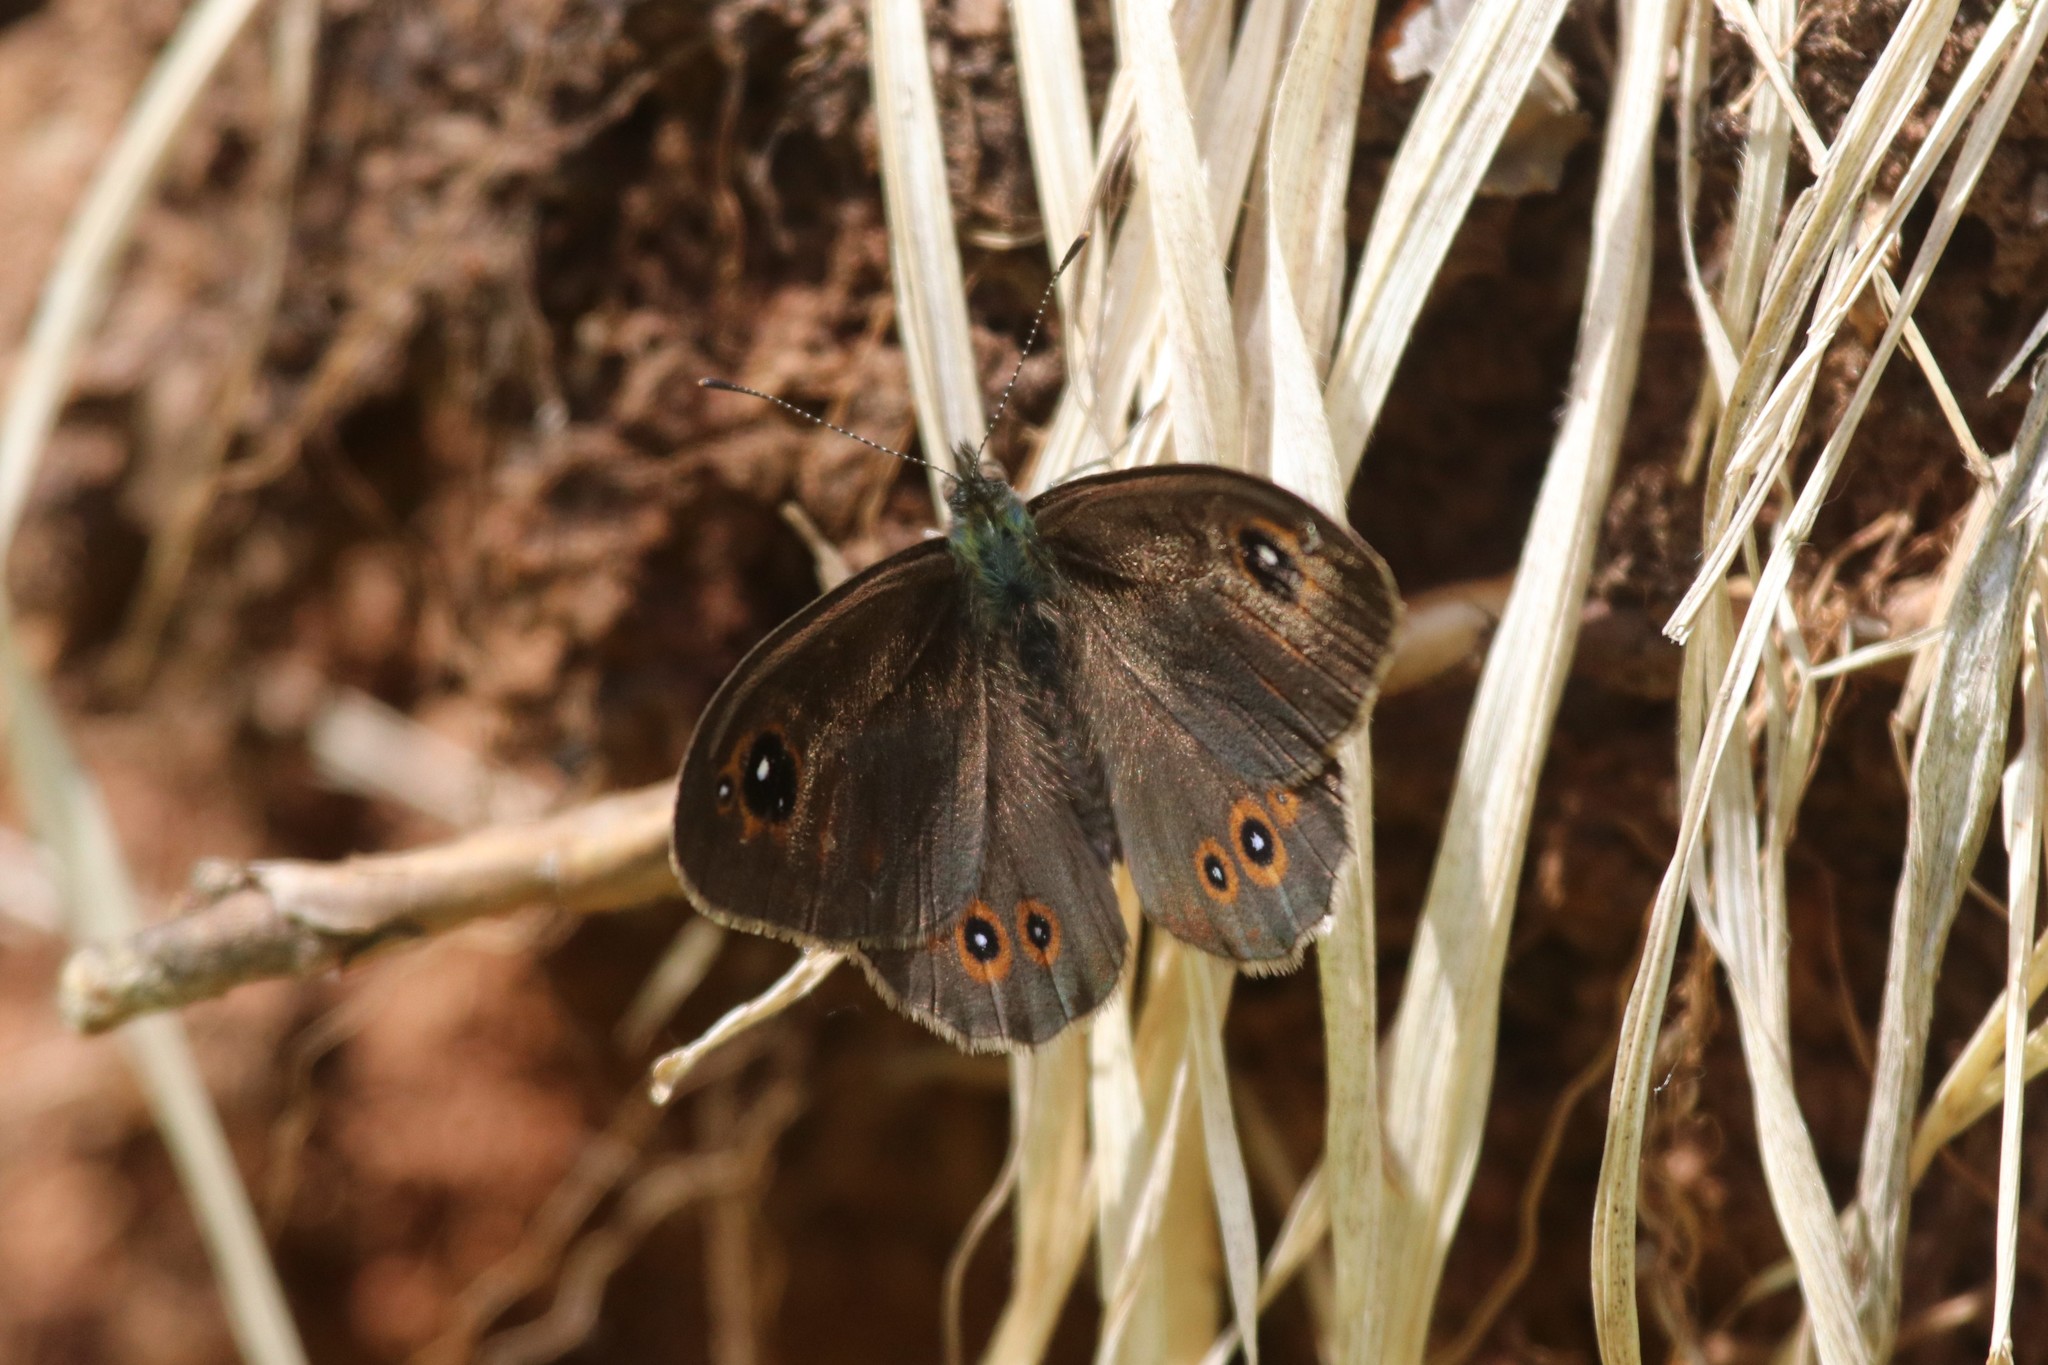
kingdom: Animalia
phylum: Arthropoda
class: Insecta
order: Lepidoptera
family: Nymphalidae
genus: Pararge
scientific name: Pararge Lasiommata maera
